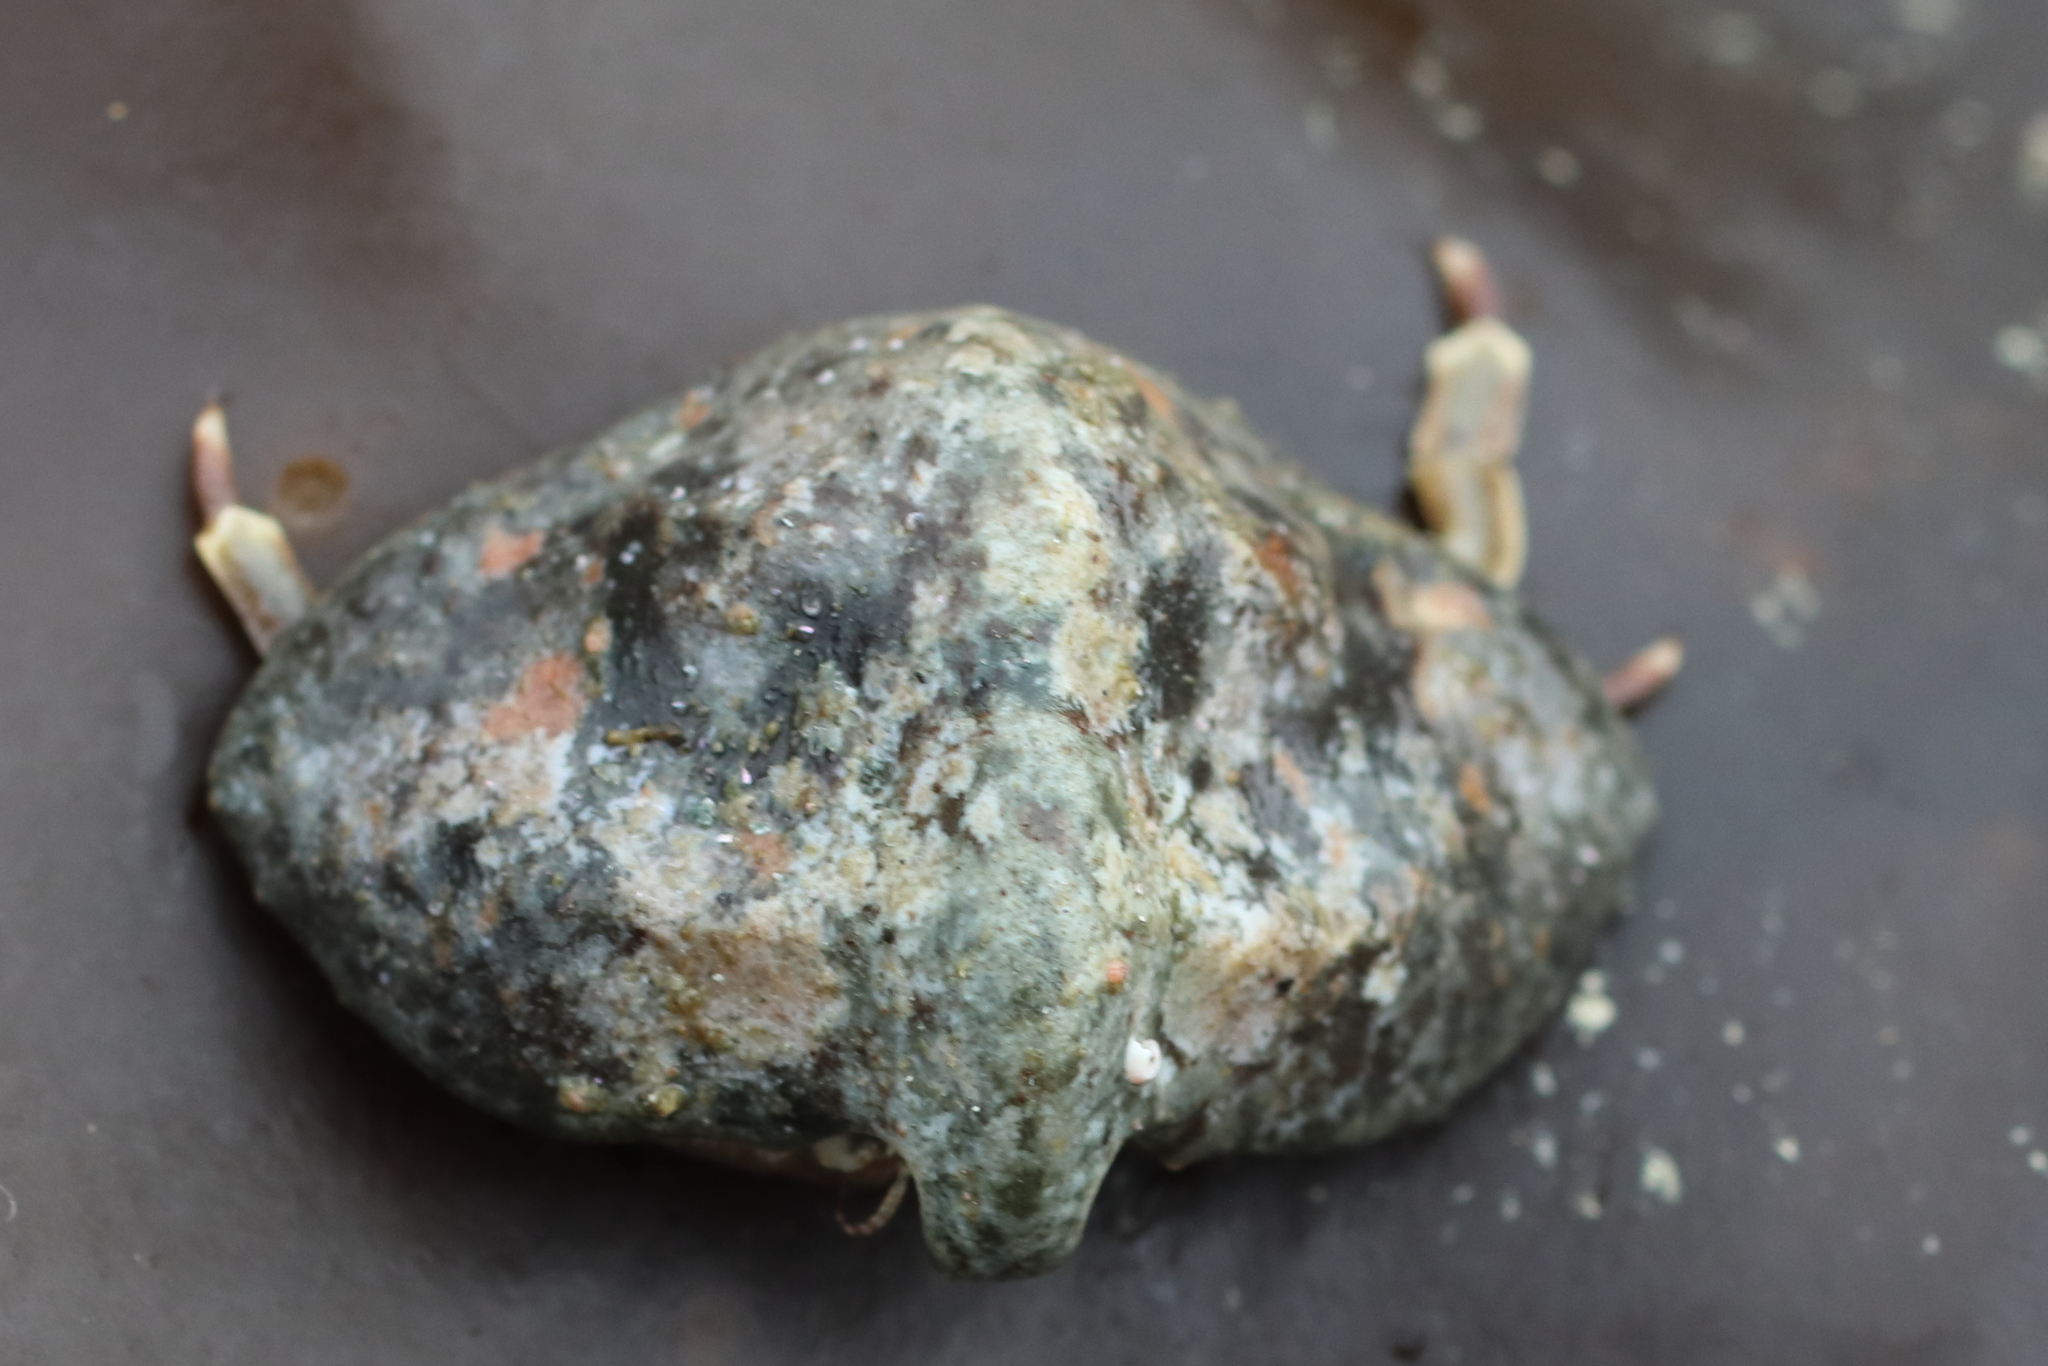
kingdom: Animalia
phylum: Arthropoda
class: Malacostraca
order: Decapoda
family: Lithodidae
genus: Cryptolithodes
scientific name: Cryptolithodes typicus
